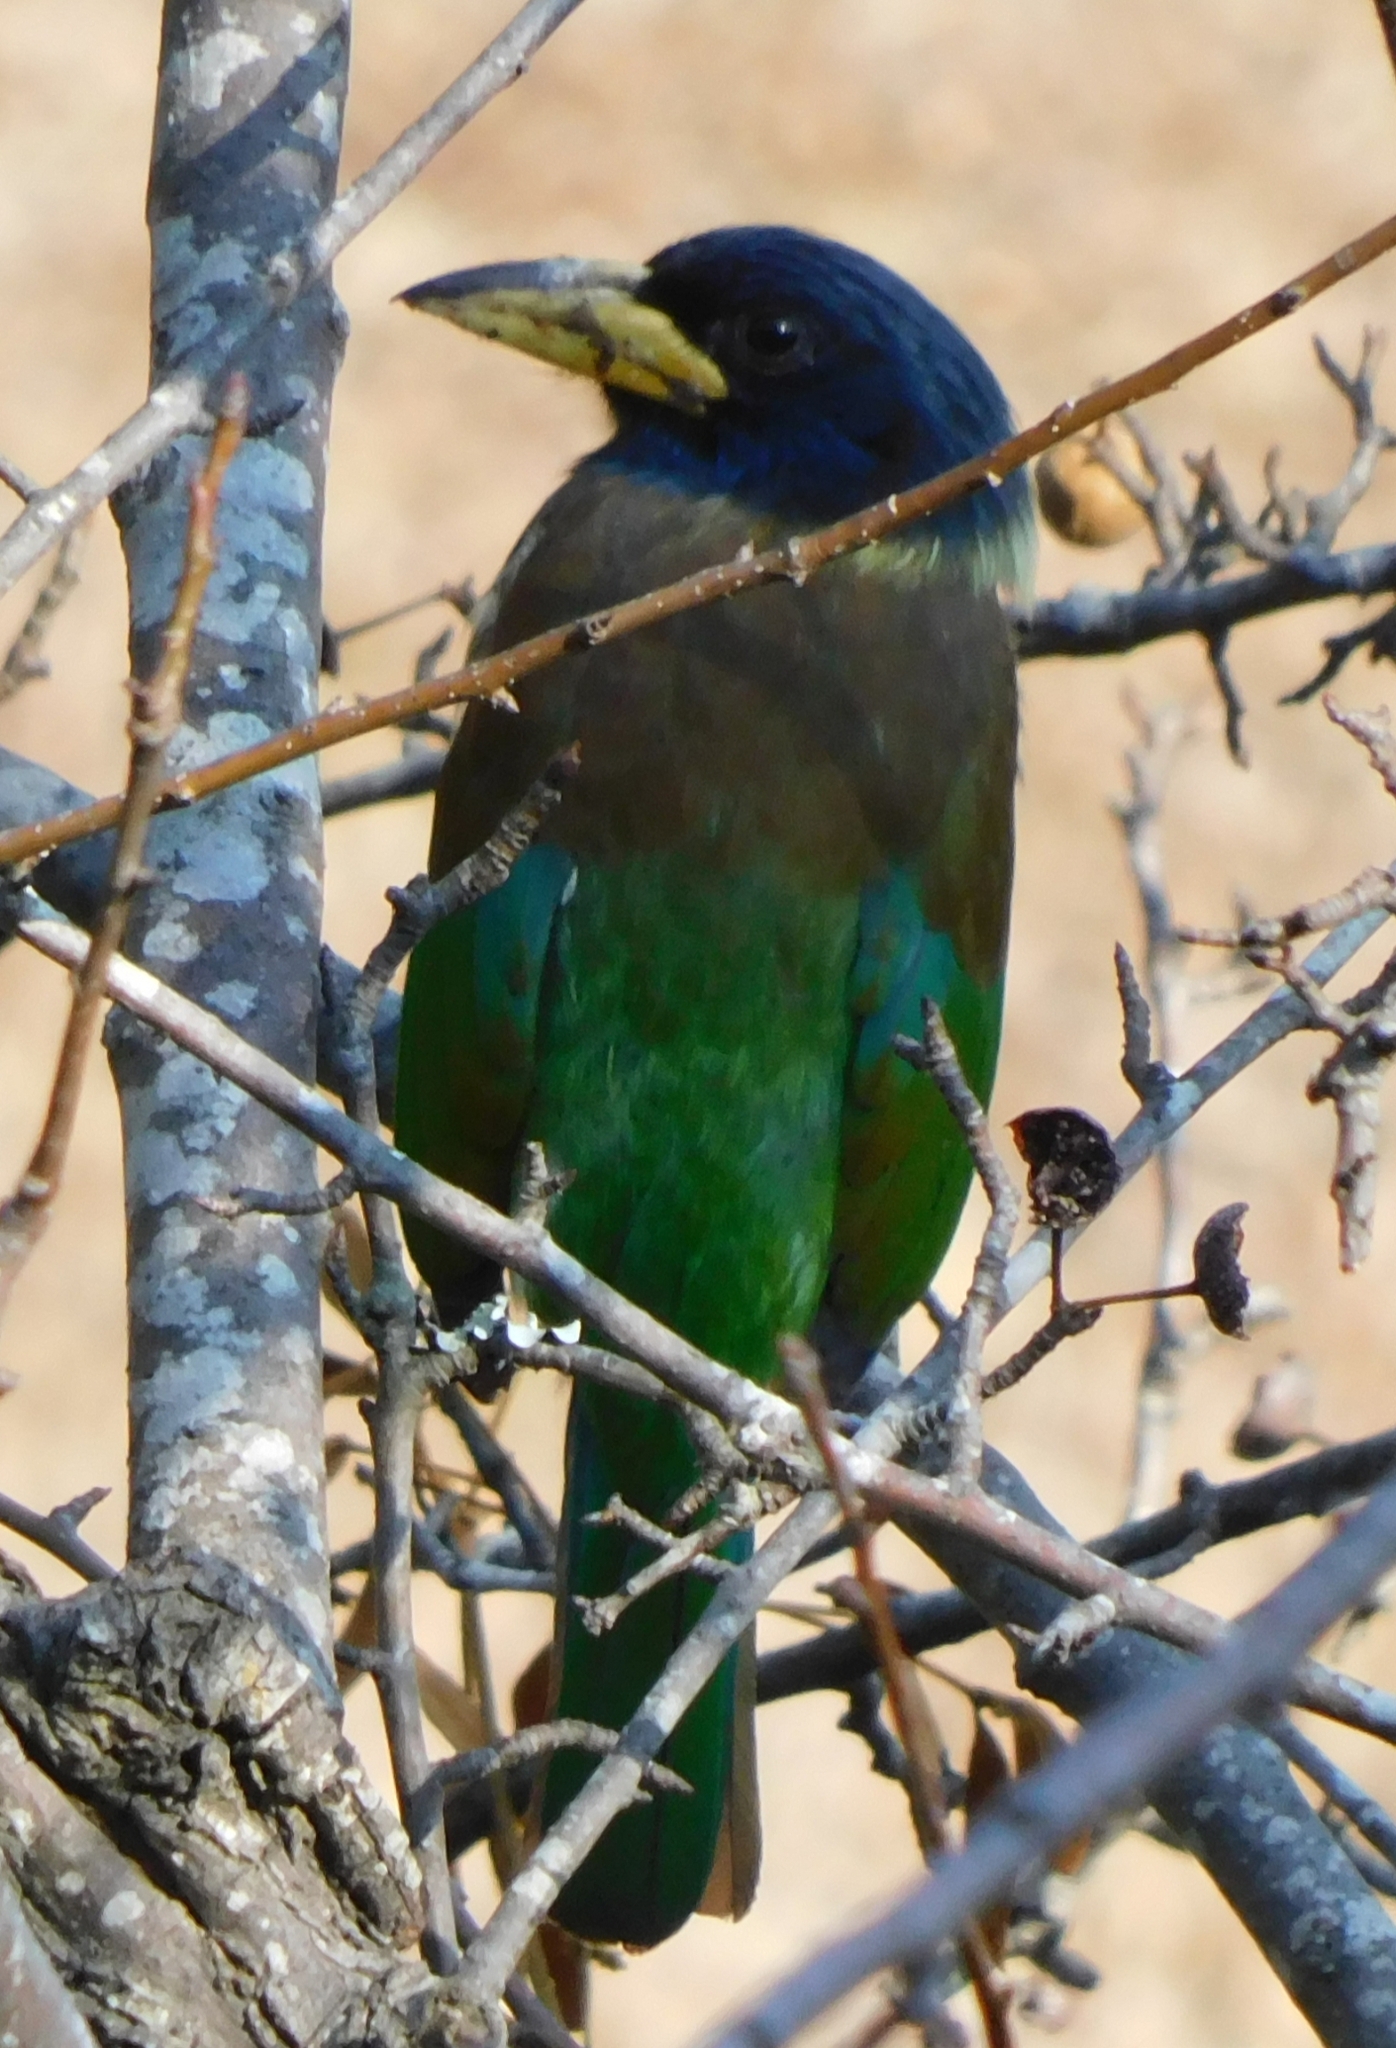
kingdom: Animalia
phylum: Chordata
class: Aves
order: Piciformes
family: Megalaimidae
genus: Psilopogon
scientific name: Psilopogon virens
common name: Great barbet
